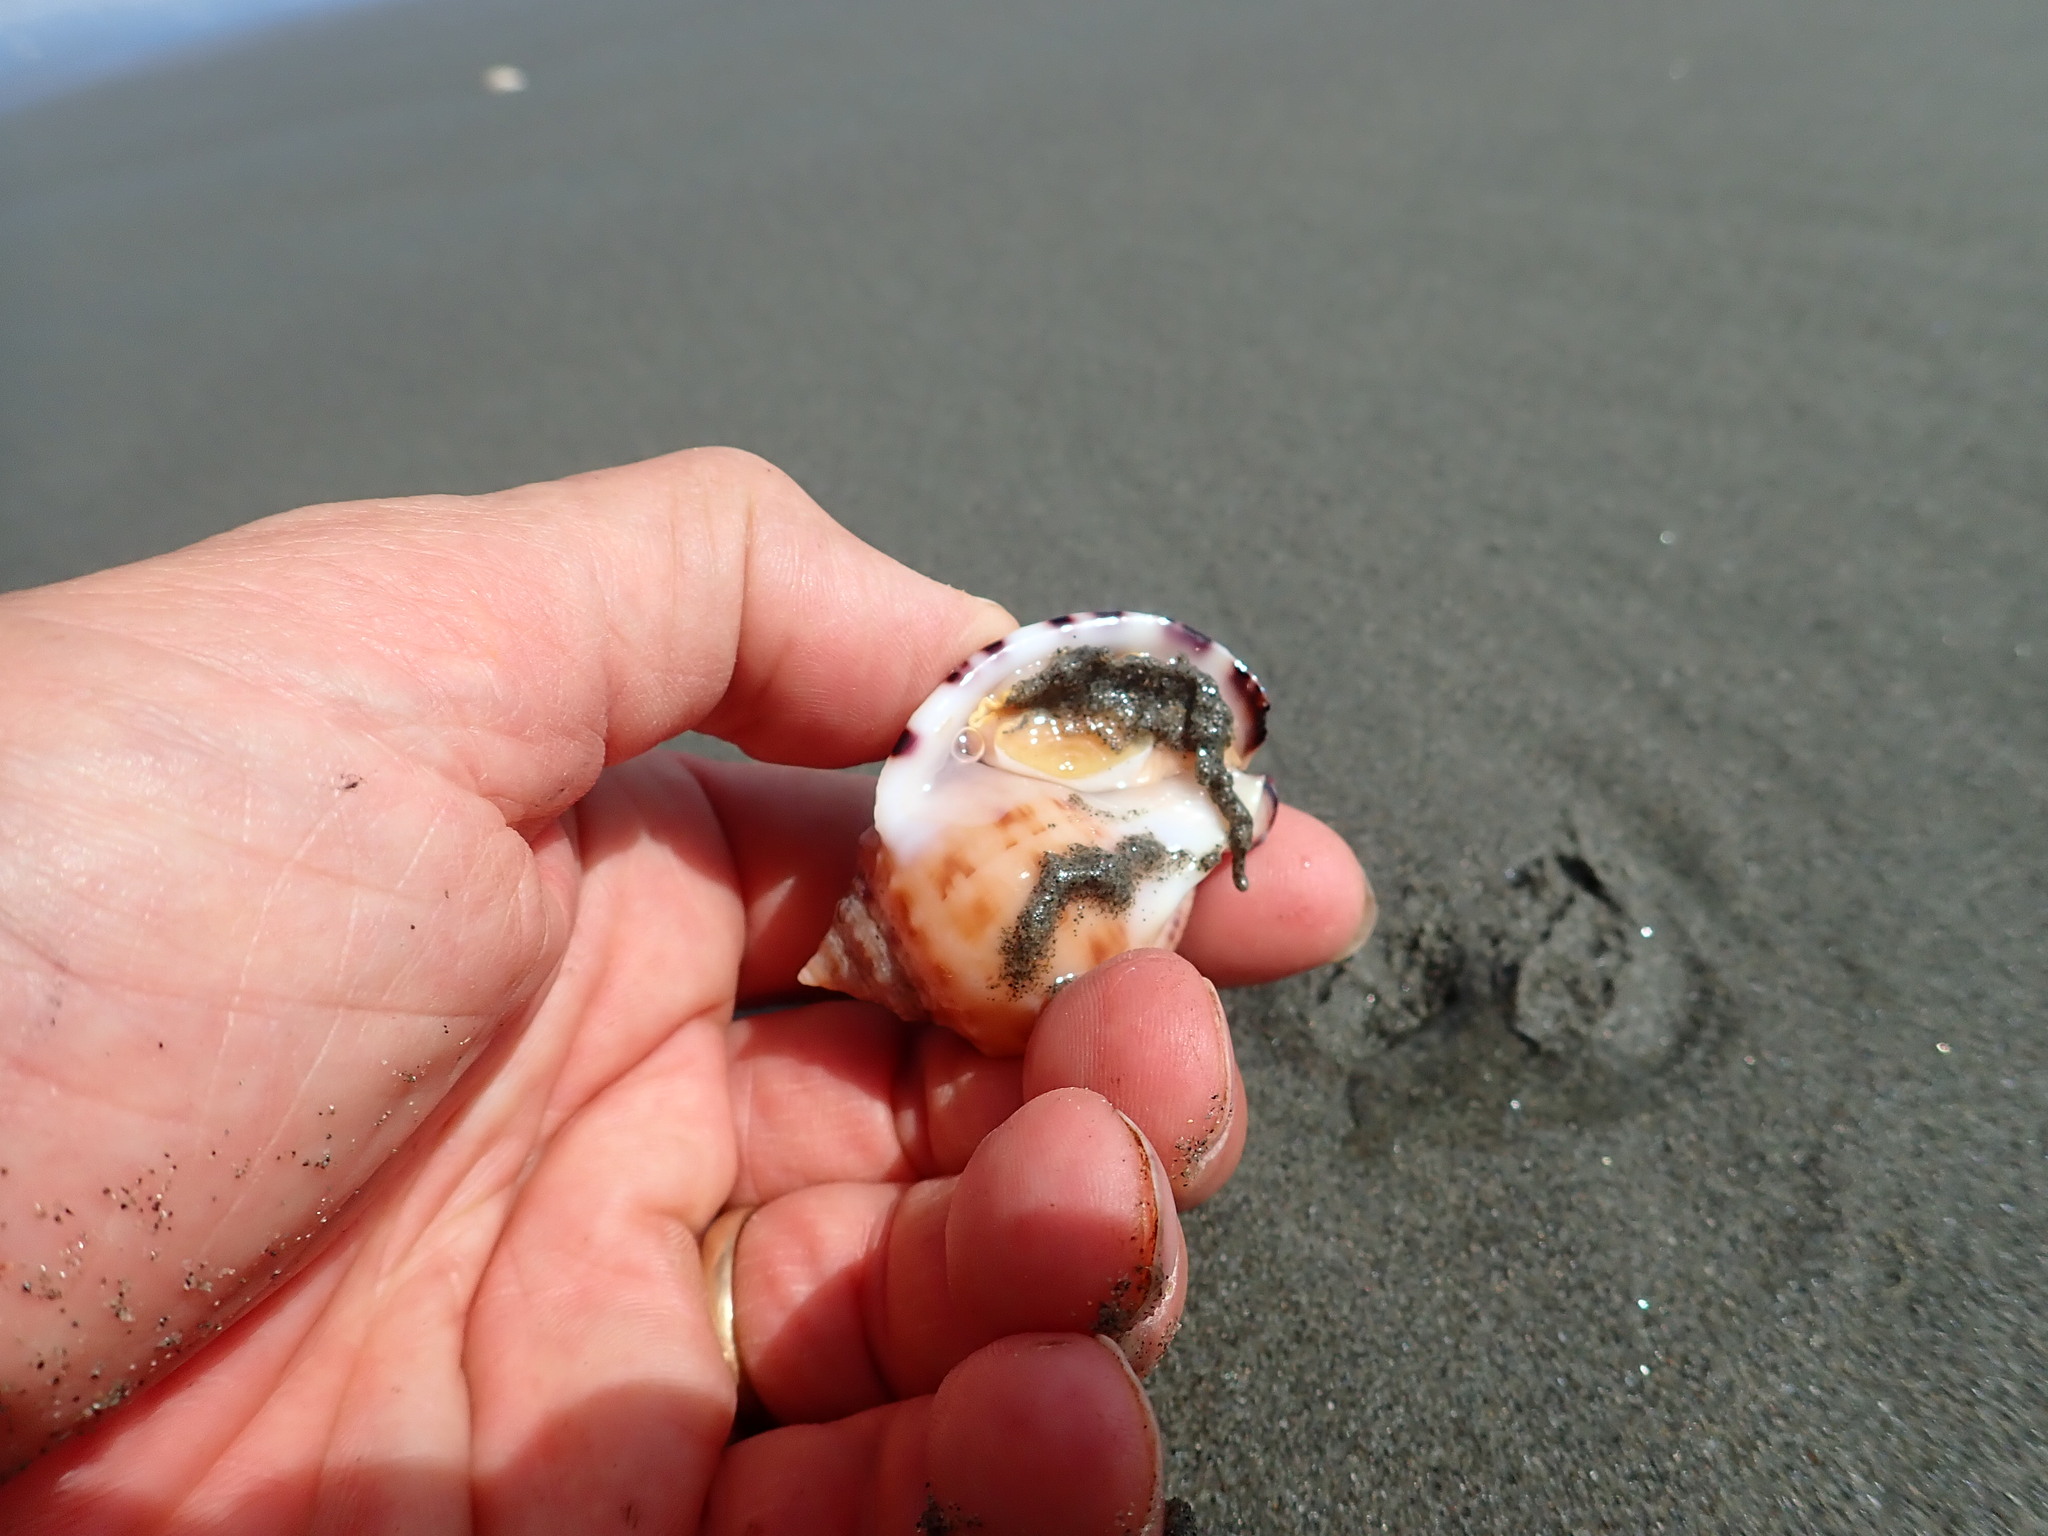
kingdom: Animalia
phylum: Mollusca
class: Gastropoda
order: Littorinimorpha
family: Cassidae
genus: Semicassis
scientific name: Semicassis pyrum
